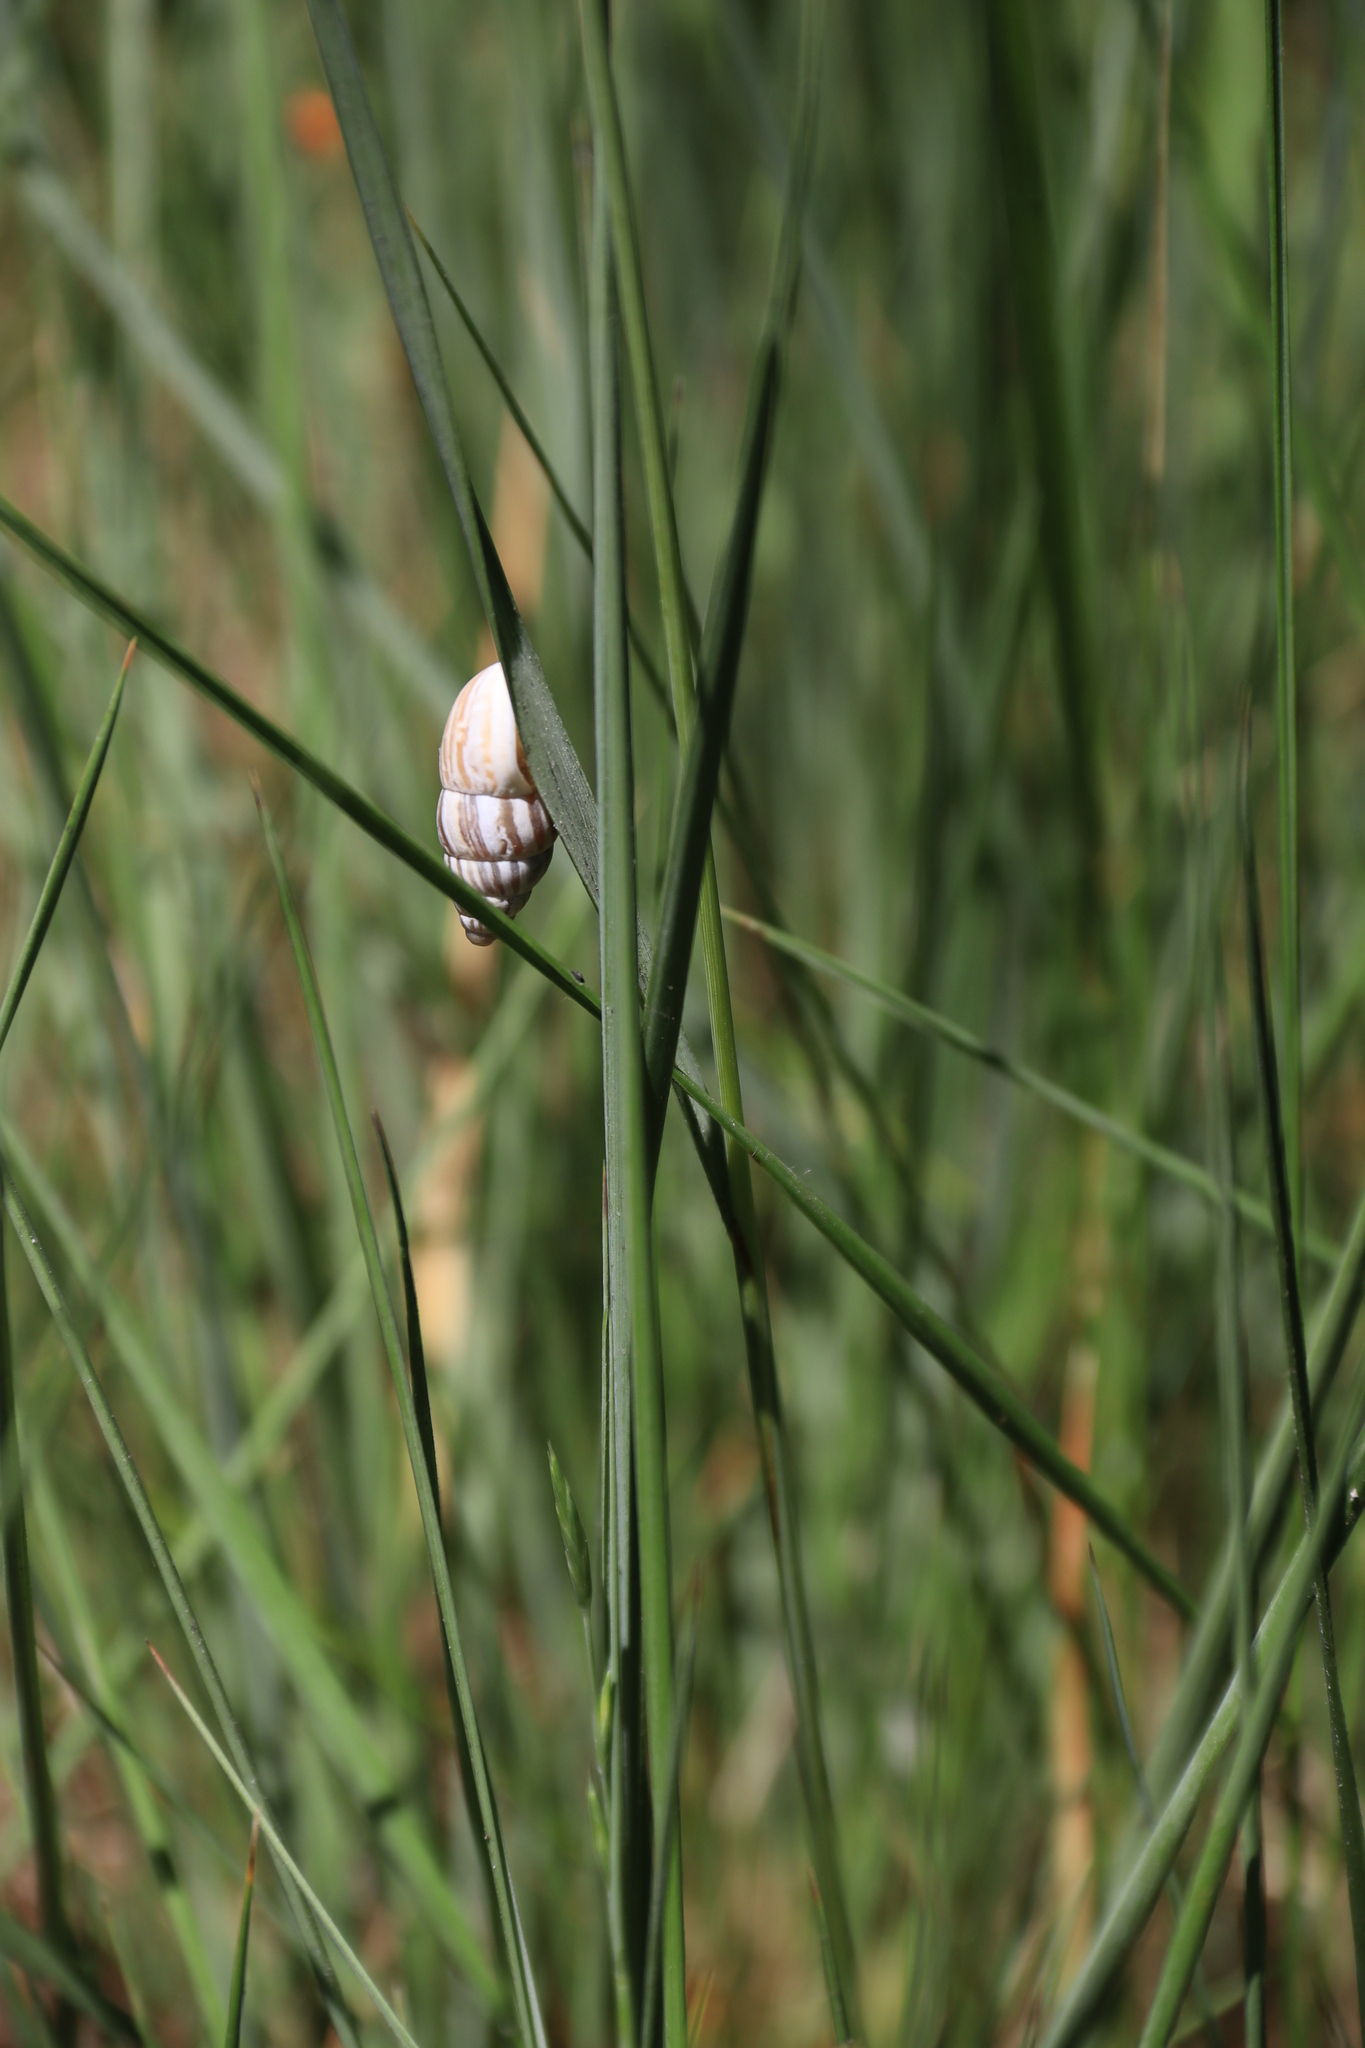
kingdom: Animalia
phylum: Mollusca
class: Gastropoda
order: Stylommatophora
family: Enidae
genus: Zebrina
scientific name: Zebrina detrita
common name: Large bulin
